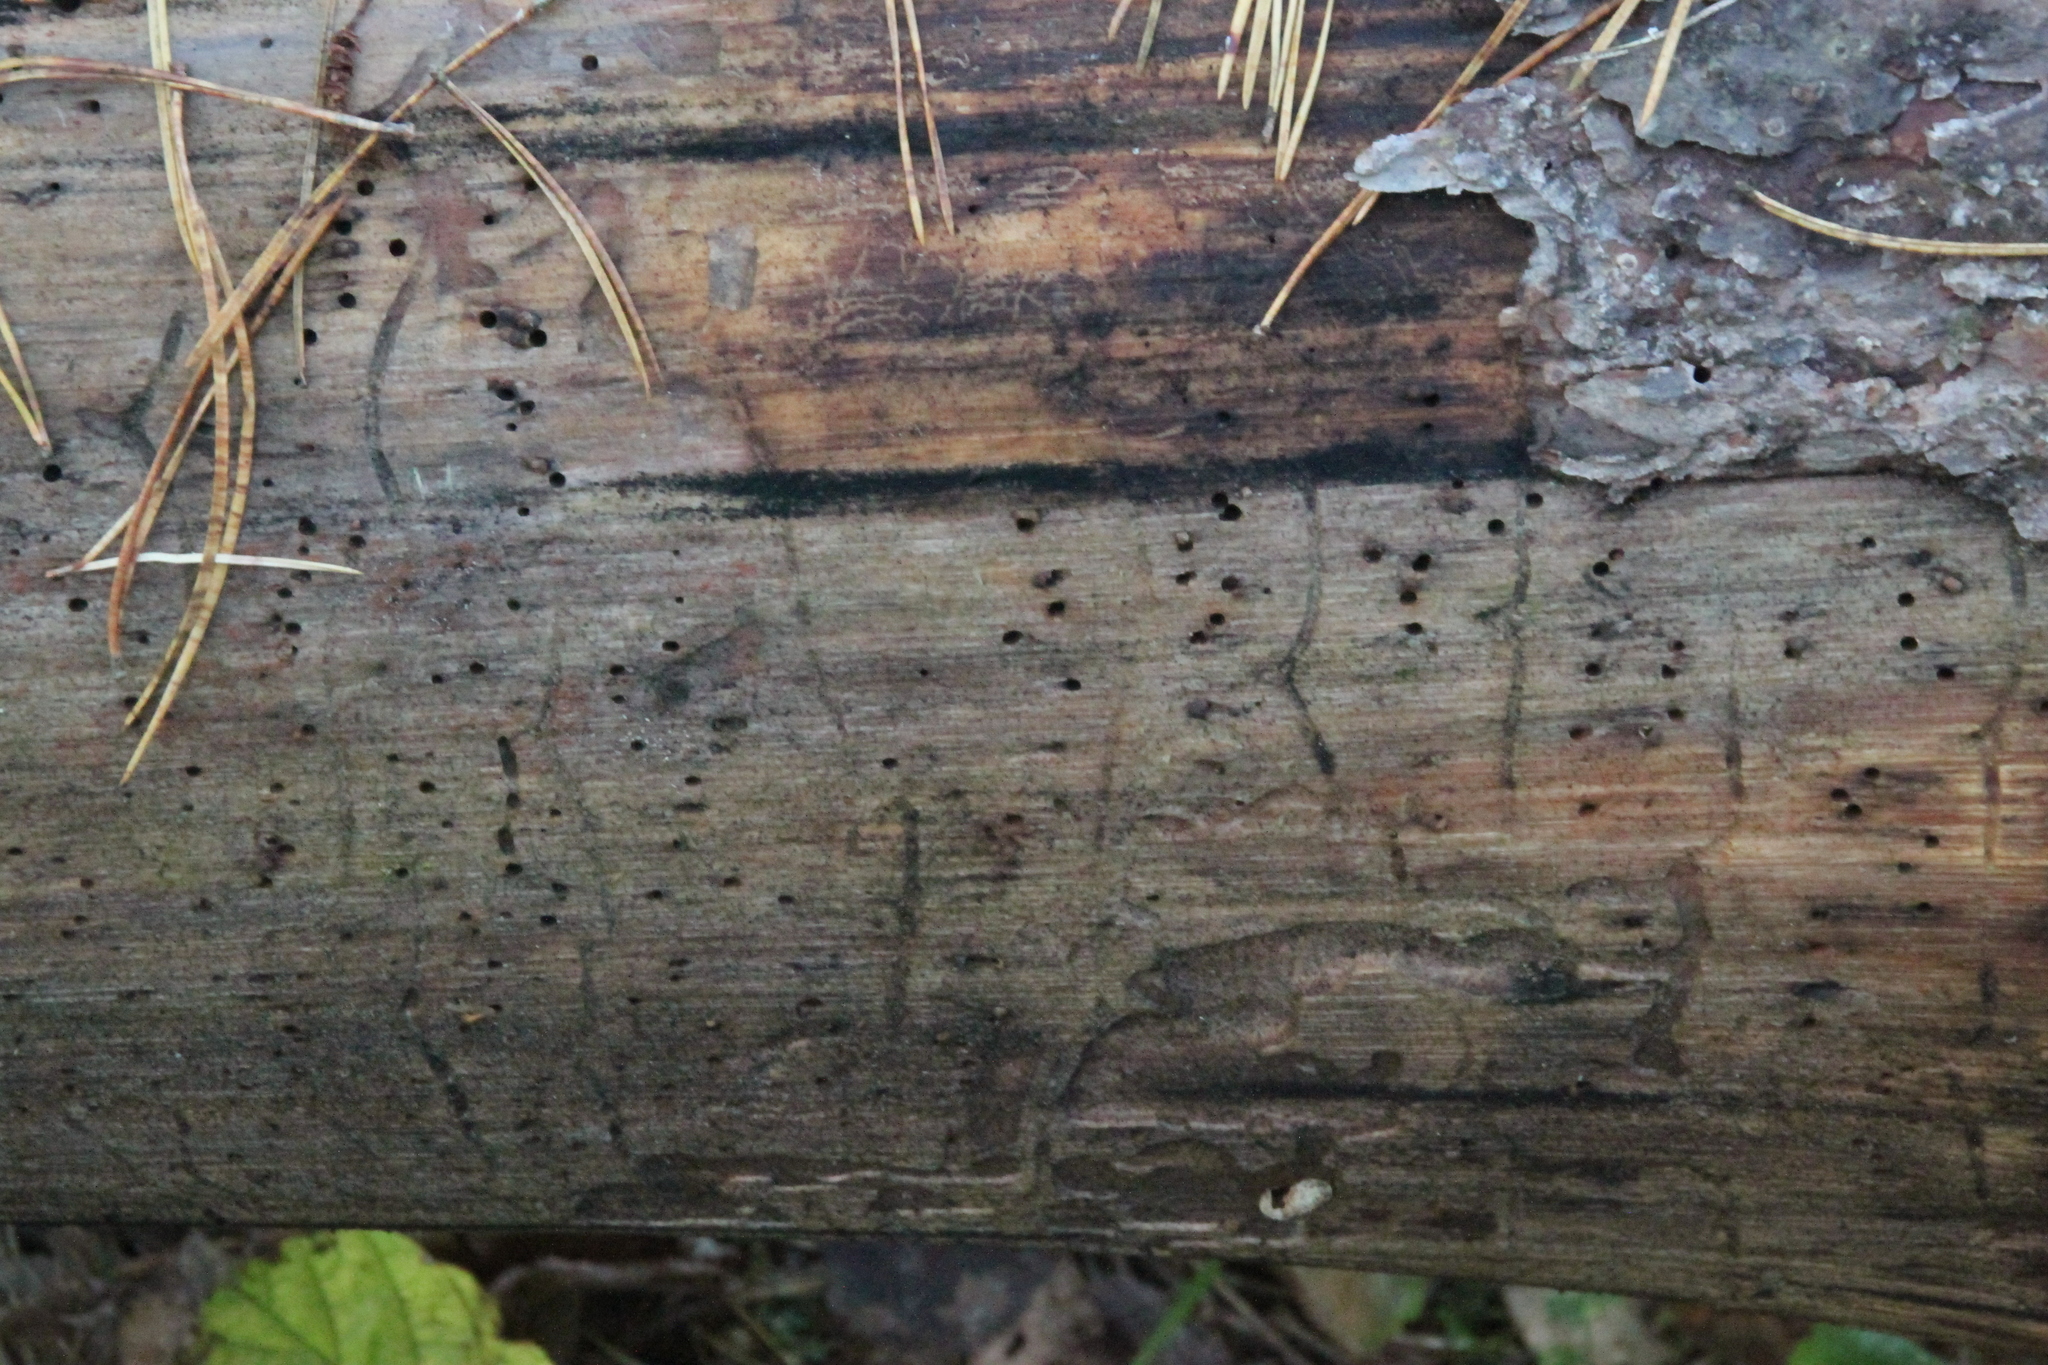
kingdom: Animalia
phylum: Arthropoda
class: Insecta
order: Coleoptera
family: Curculionidae
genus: Tomicus
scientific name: Tomicus minor
